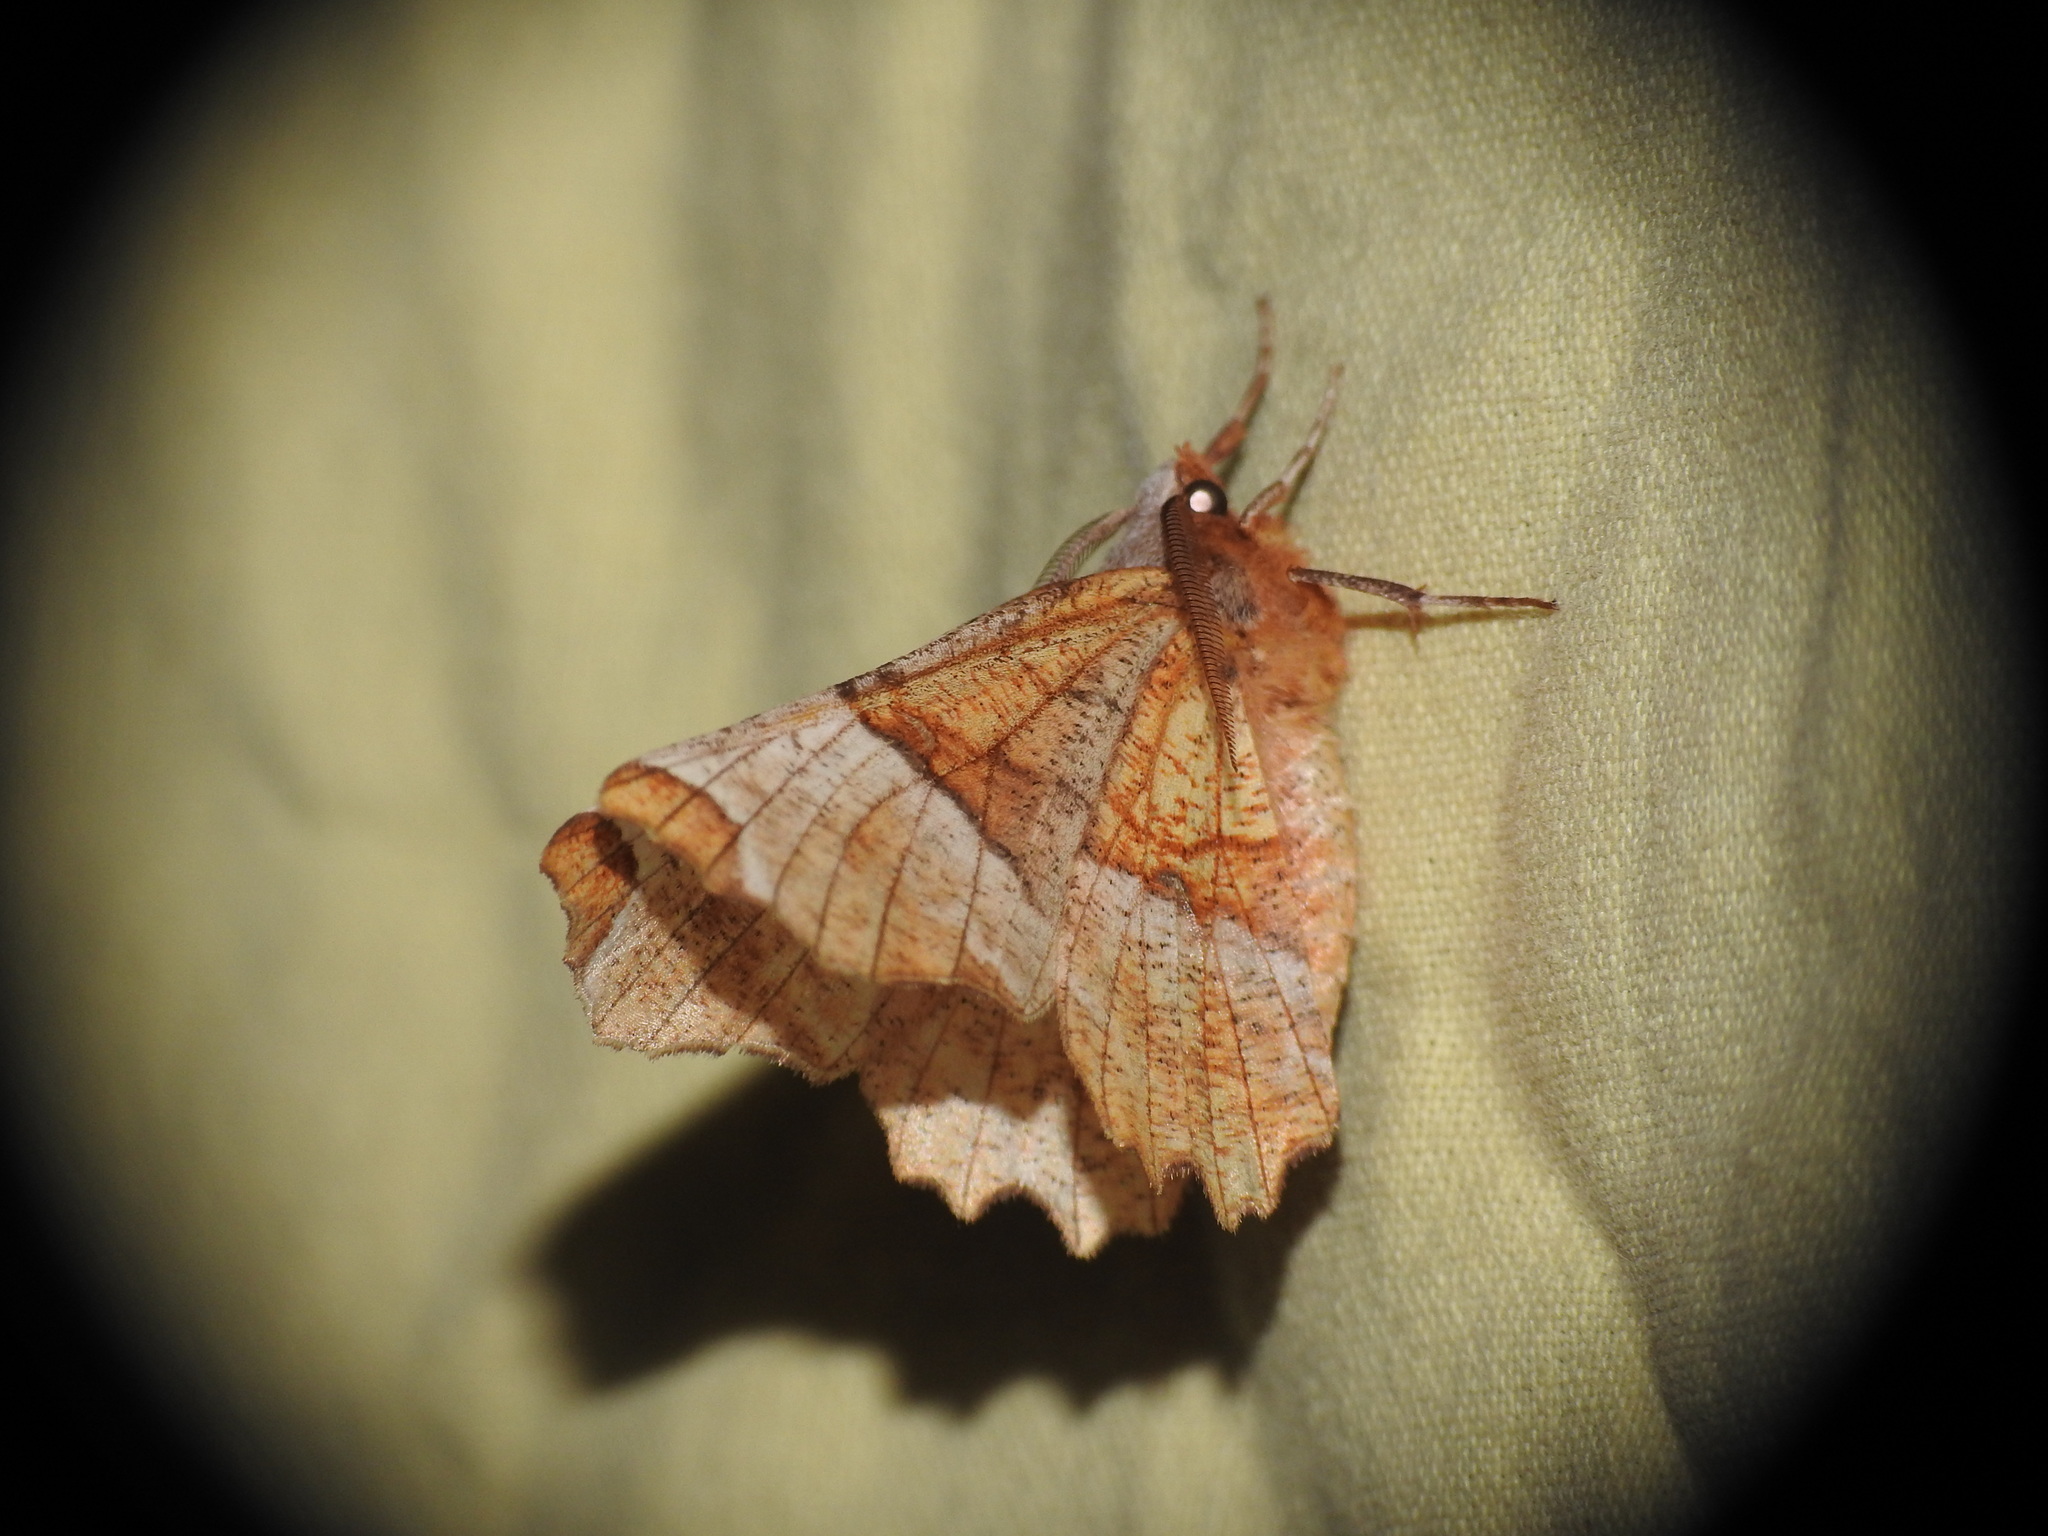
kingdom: Animalia
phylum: Arthropoda
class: Insecta
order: Lepidoptera
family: Geometridae
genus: Selenia
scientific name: Selenia lunularia
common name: Lunar thorn
